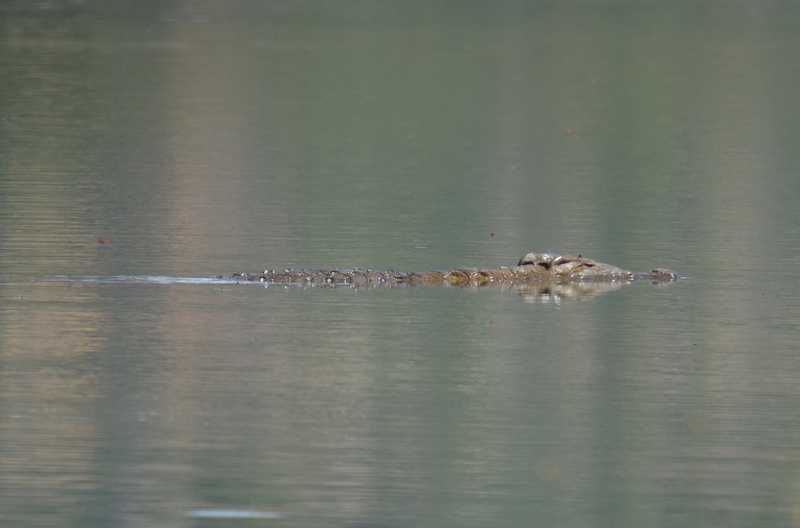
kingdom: Animalia
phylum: Chordata
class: Crocodylia
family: Crocodylidae
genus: Crocodylus
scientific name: Crocodylus niloticus
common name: Nile crocodile
